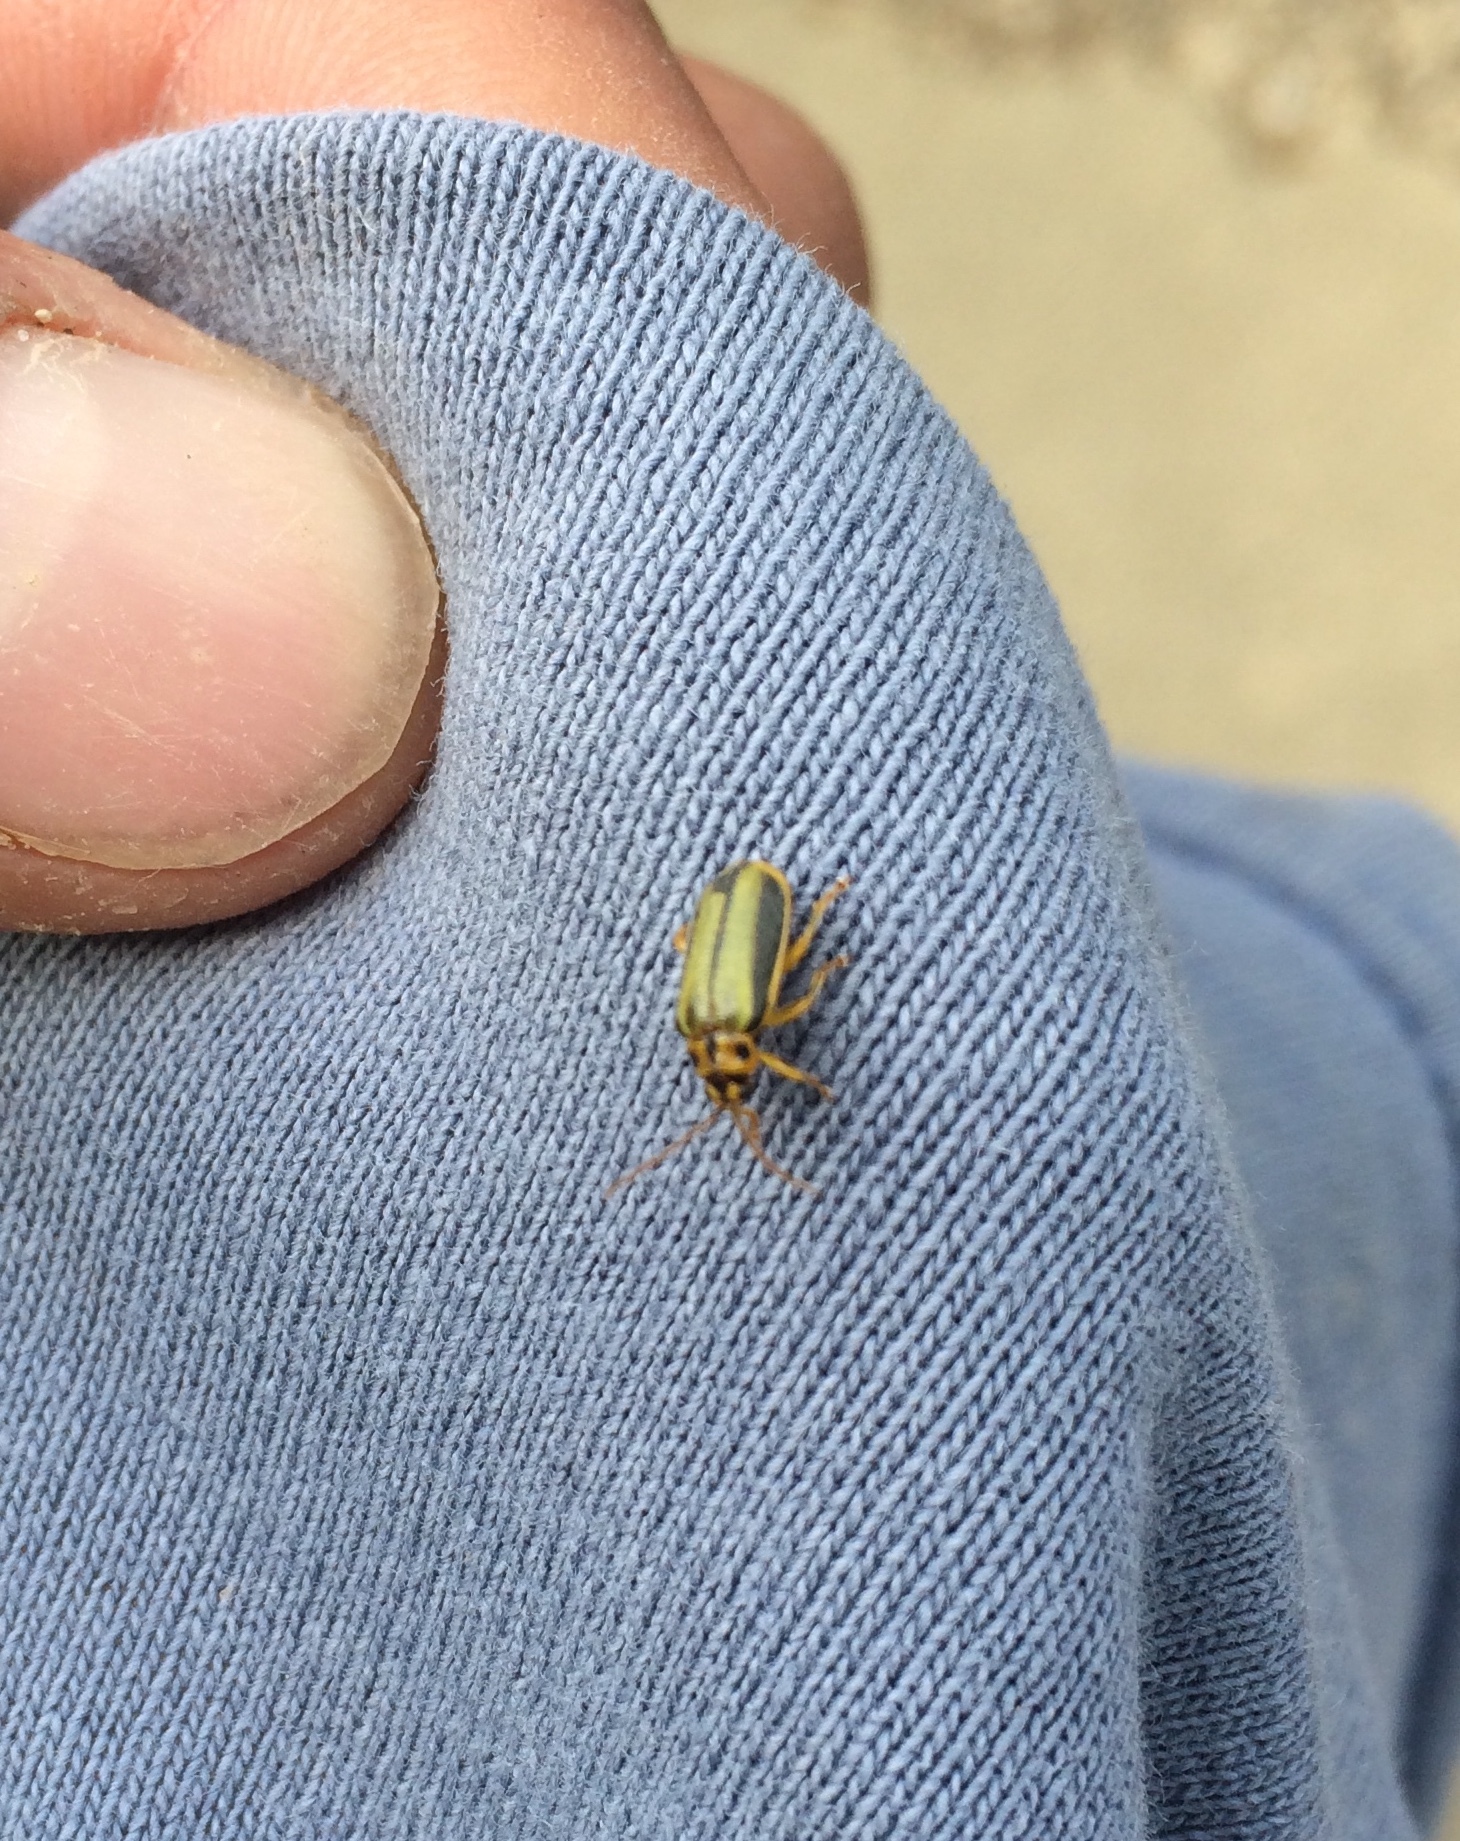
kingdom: Animalia
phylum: Arthropoda
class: Insecta
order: Coleoptera
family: Chrysomelidae
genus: Xanthogaleruca
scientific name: Xanthogaleruca luteola
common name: Elm leaf beetle
